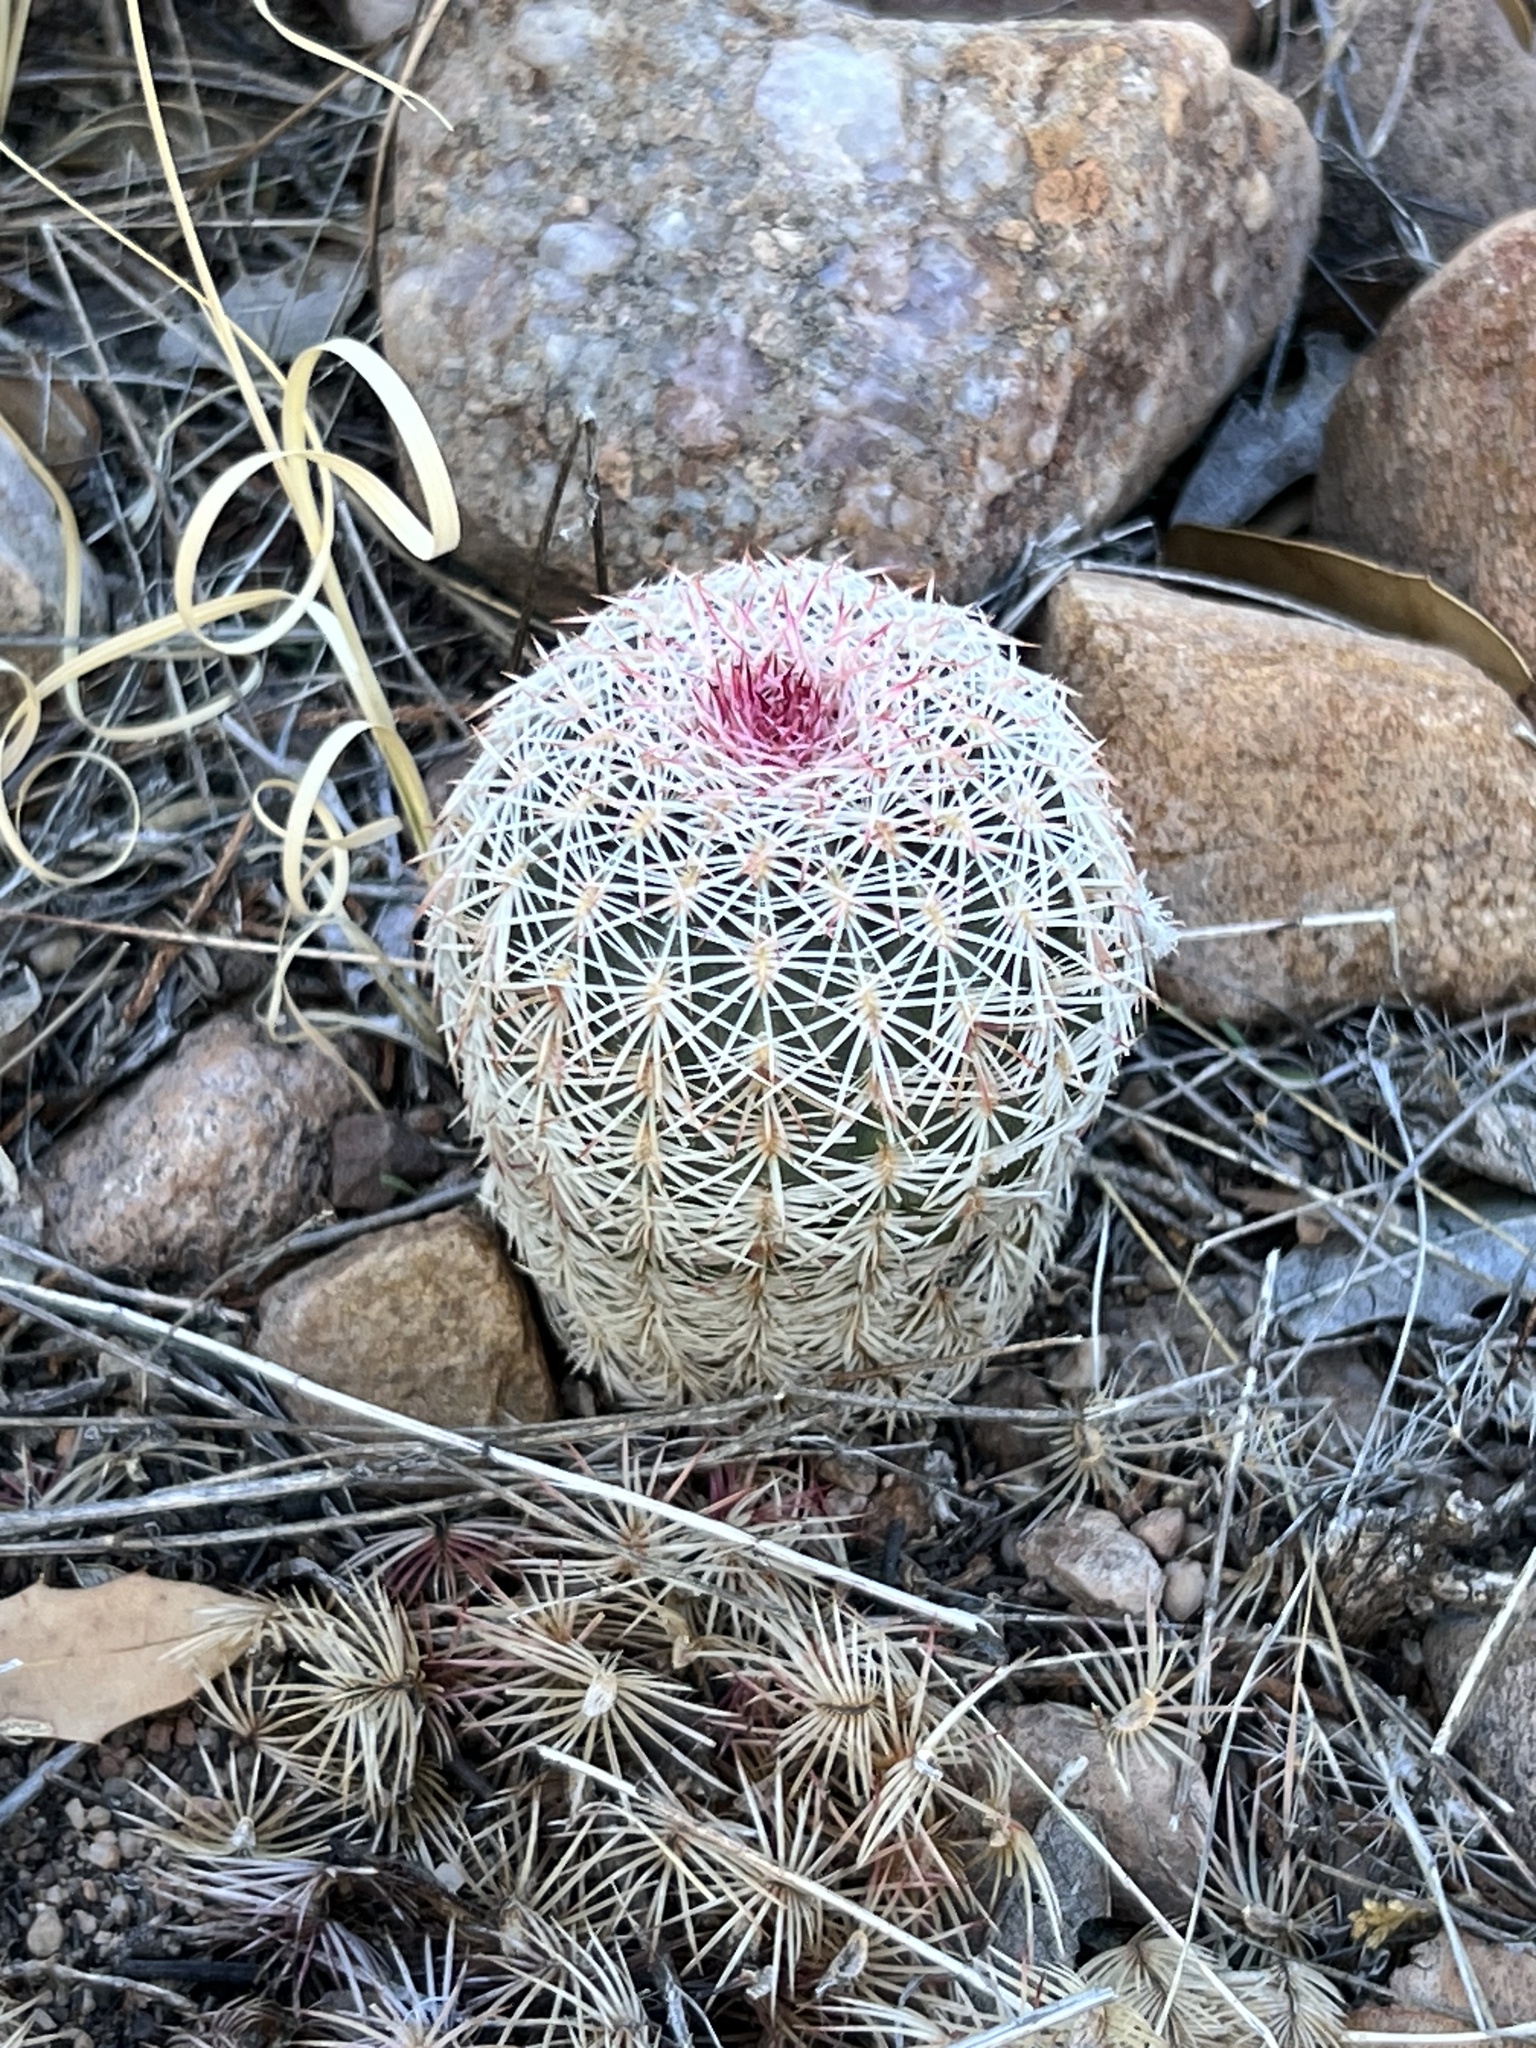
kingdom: Plantae
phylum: Tracheophyta
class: Magnoliopsida
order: Caryophyllales
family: Cactaceae
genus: Echinocereus
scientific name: Echinocereus rigidissimus
